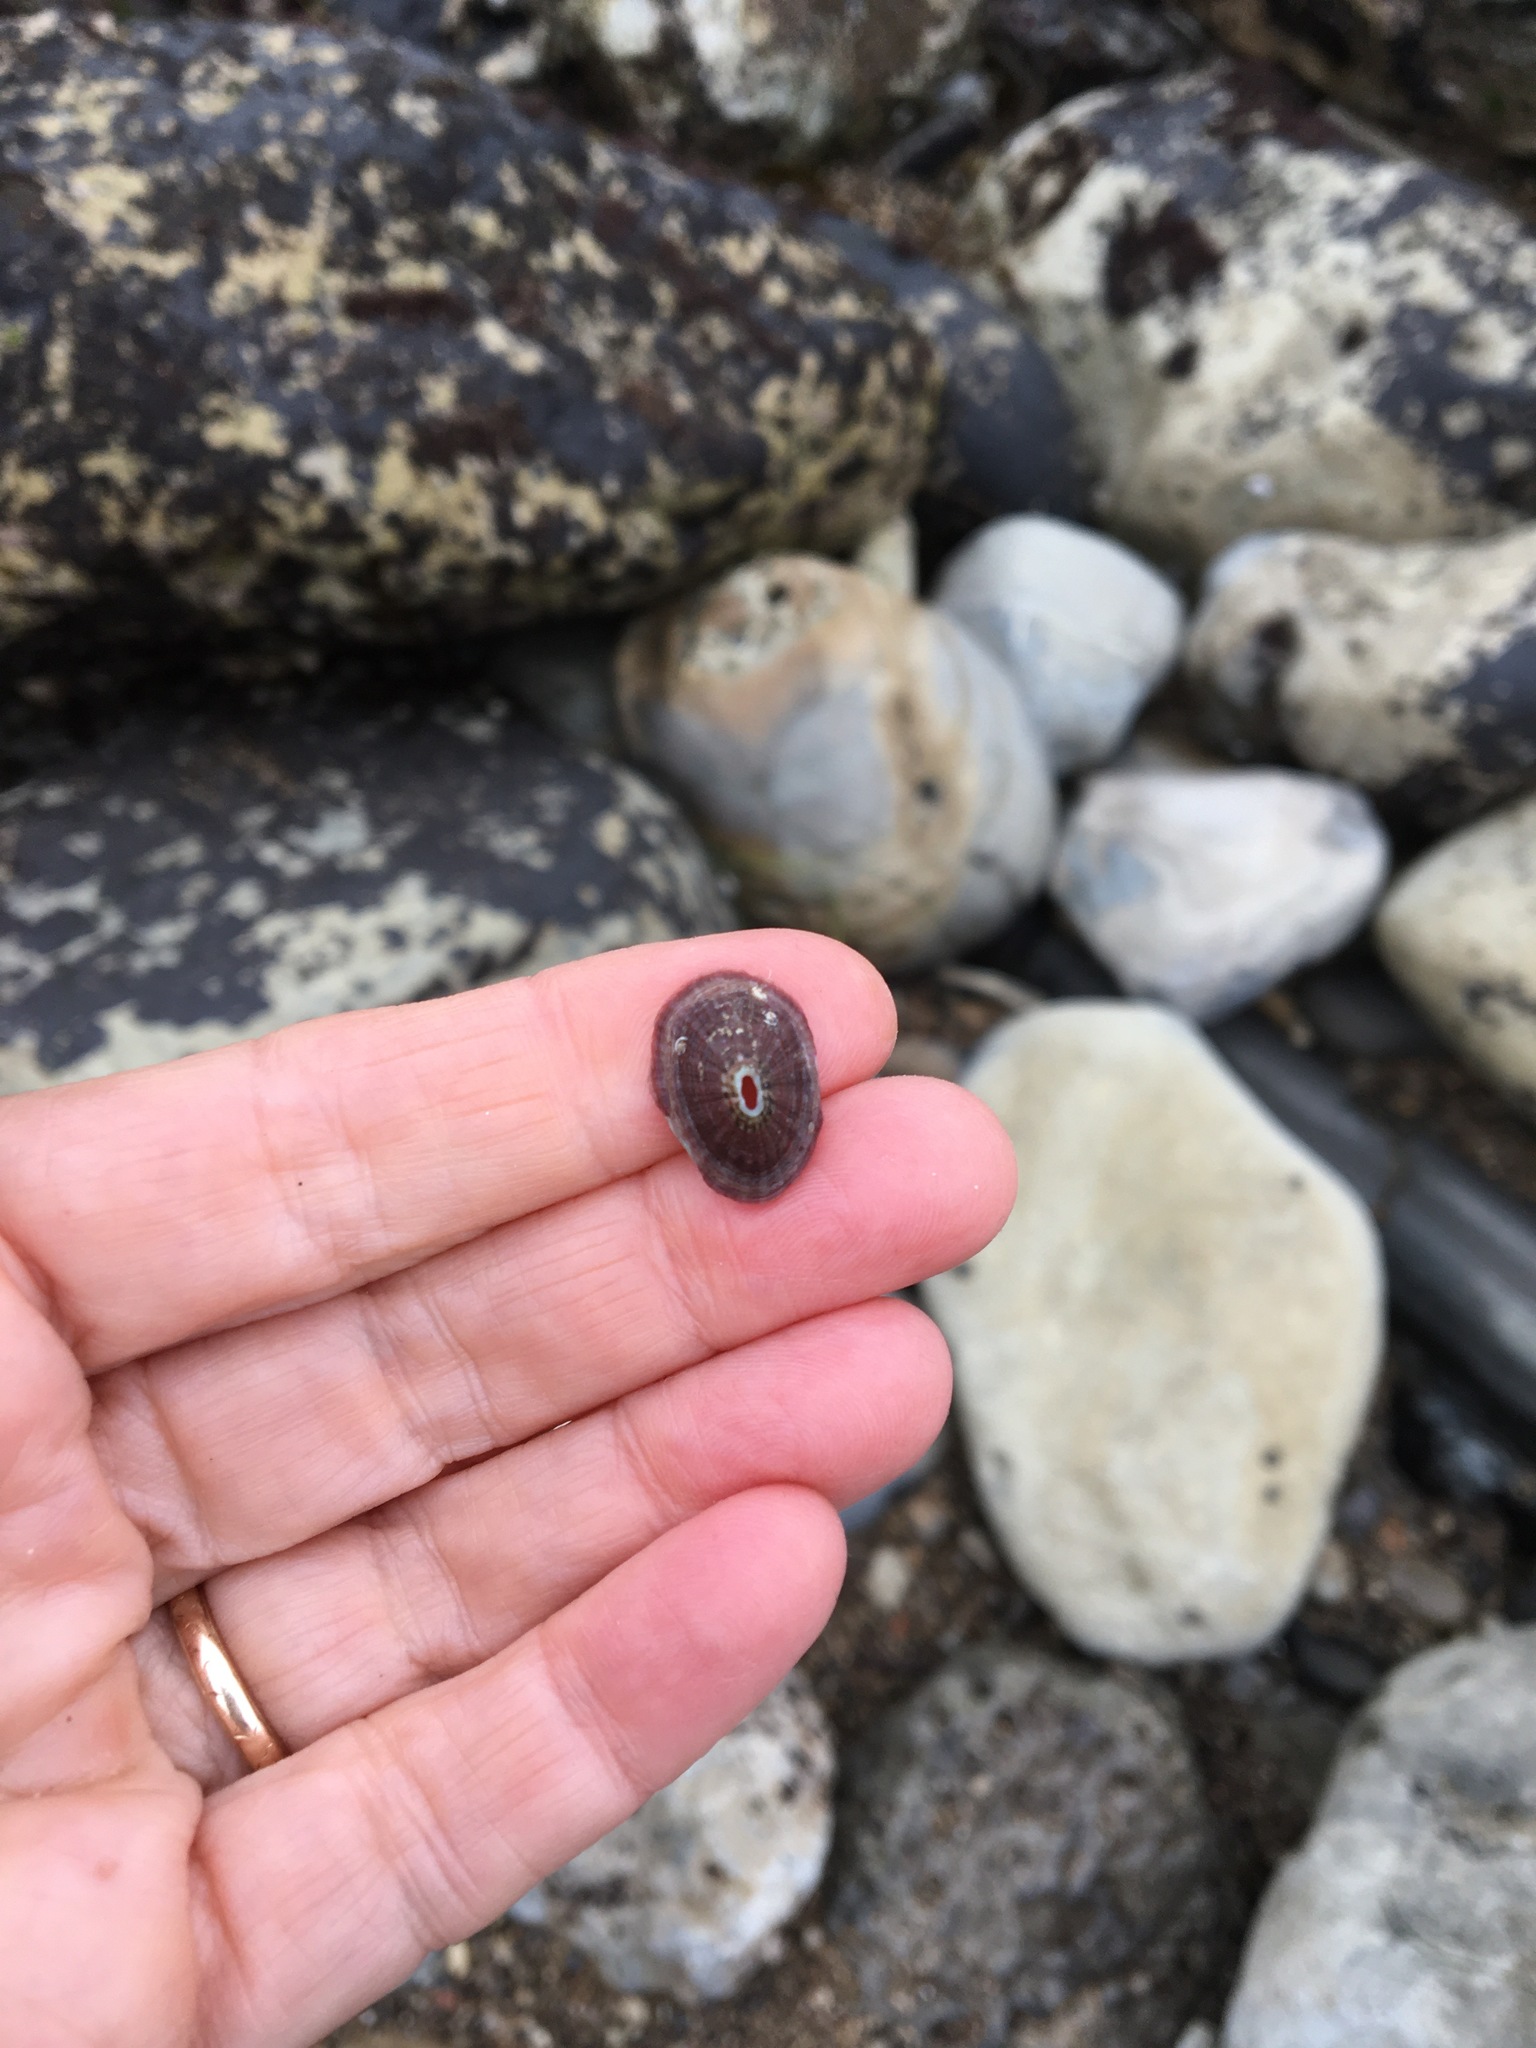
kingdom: Animalia
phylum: Mollusca
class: Gastropoda
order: Lepetellida
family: Fissurellidae
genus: Fissurella
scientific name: Fissurella volcano
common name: Volcano keyhole limpet
